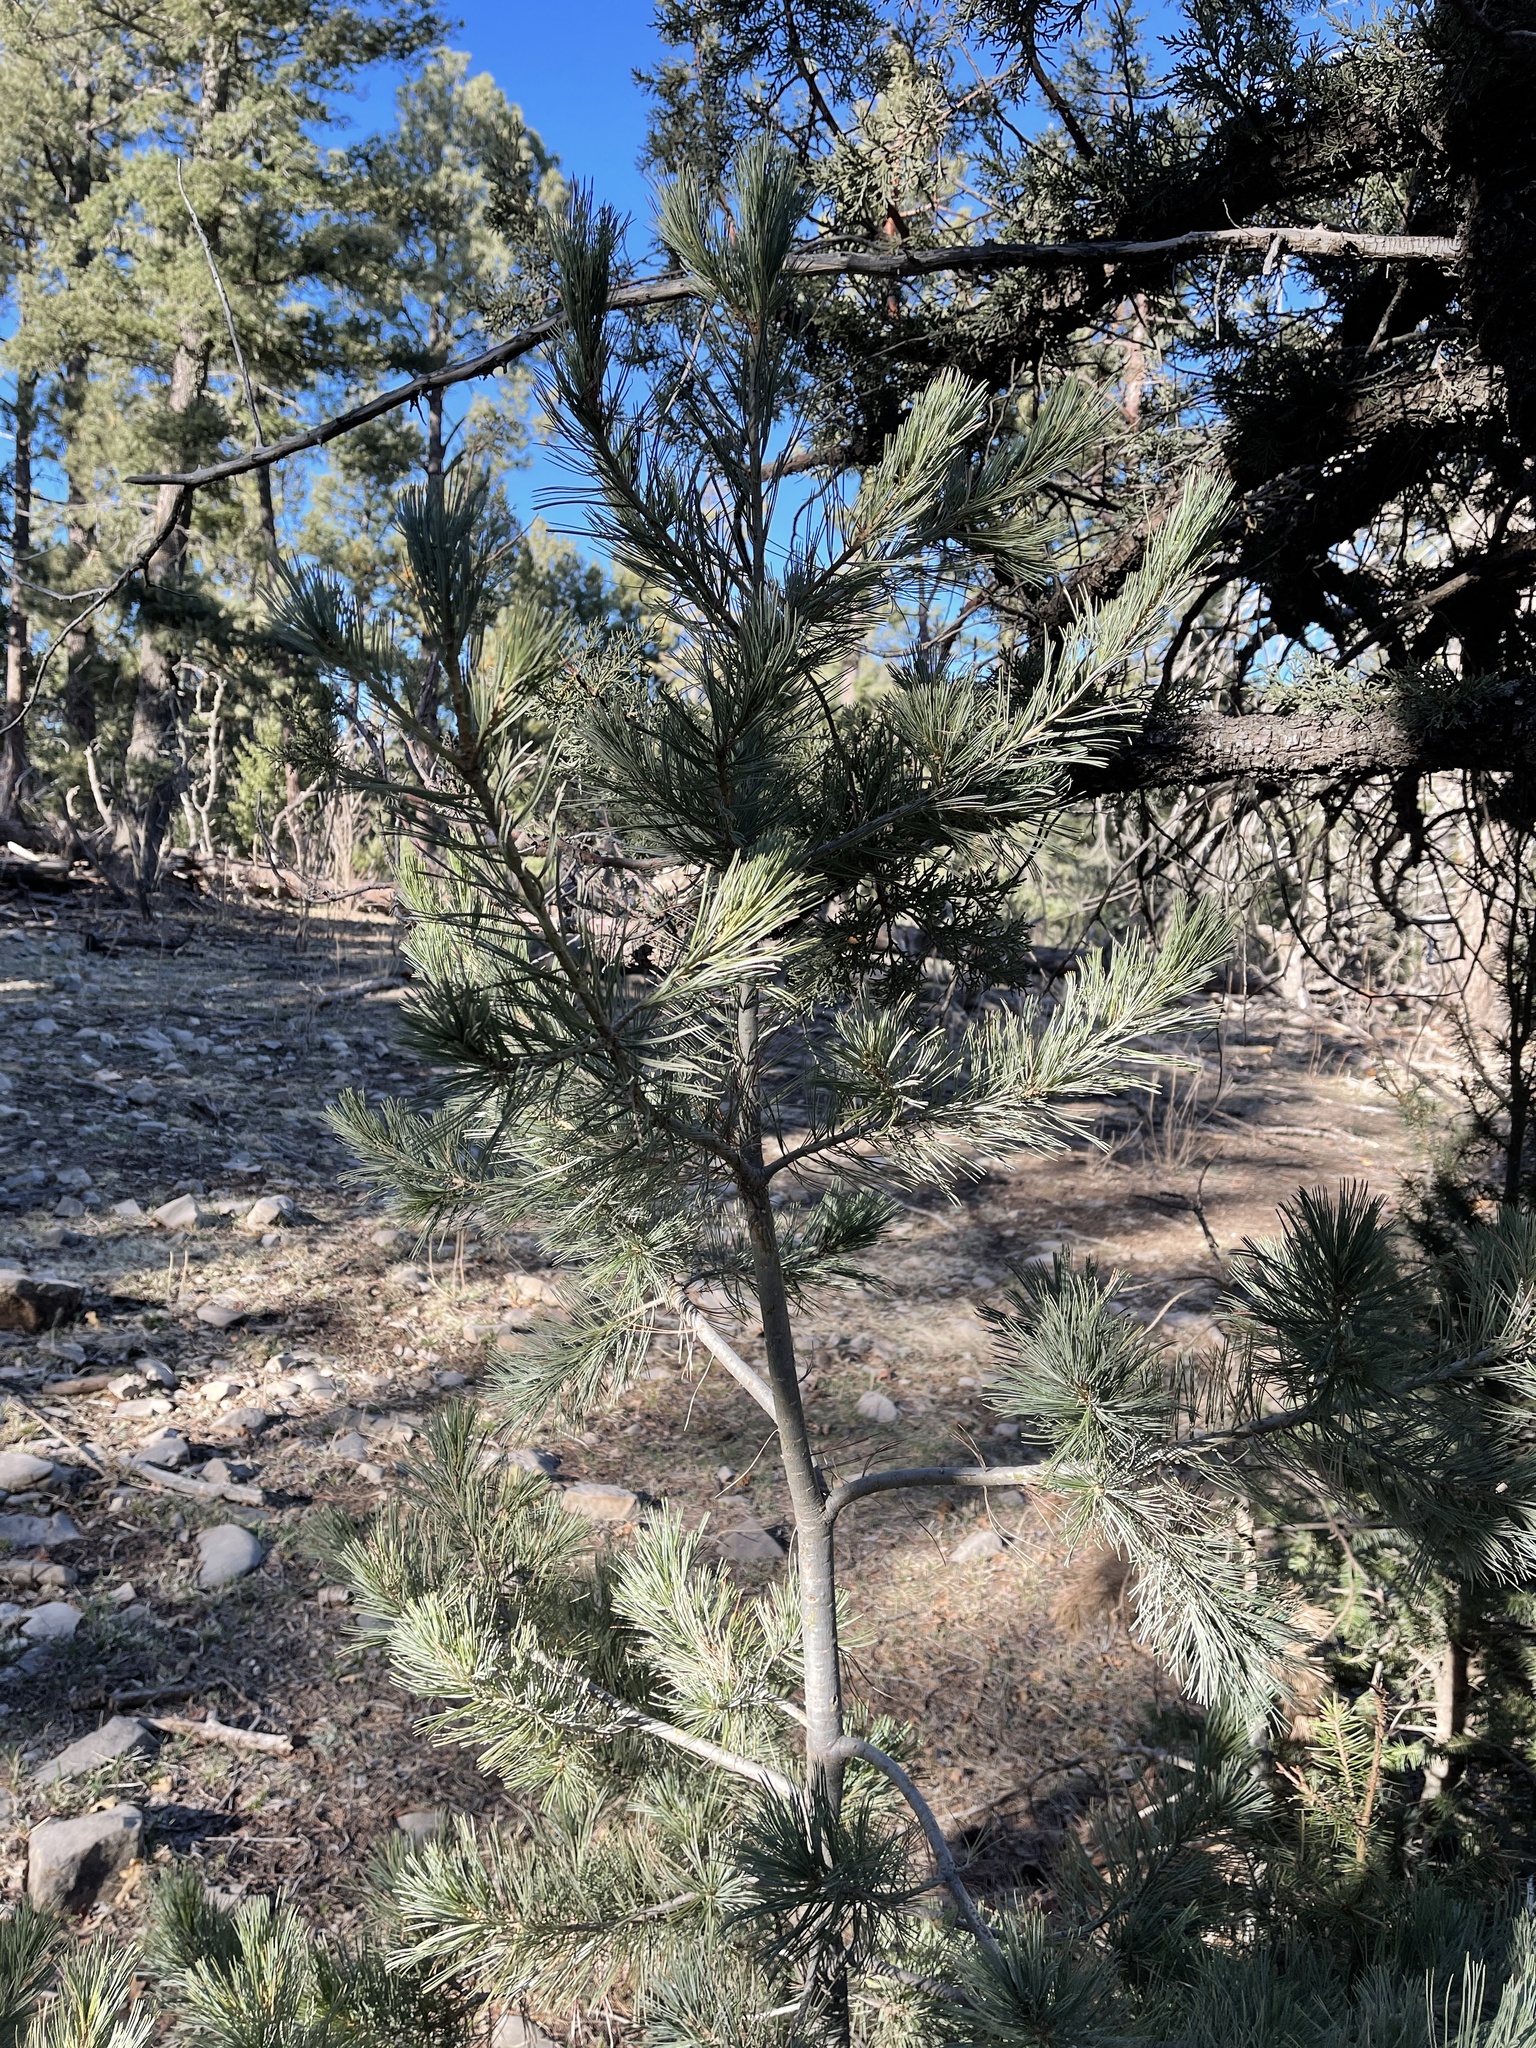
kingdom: Plantae
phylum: Tracheophyta
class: Pinopsida
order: Pinales
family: Pinaceae
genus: Pinus
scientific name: Pinus strobiformis
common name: Southwestern white pine
